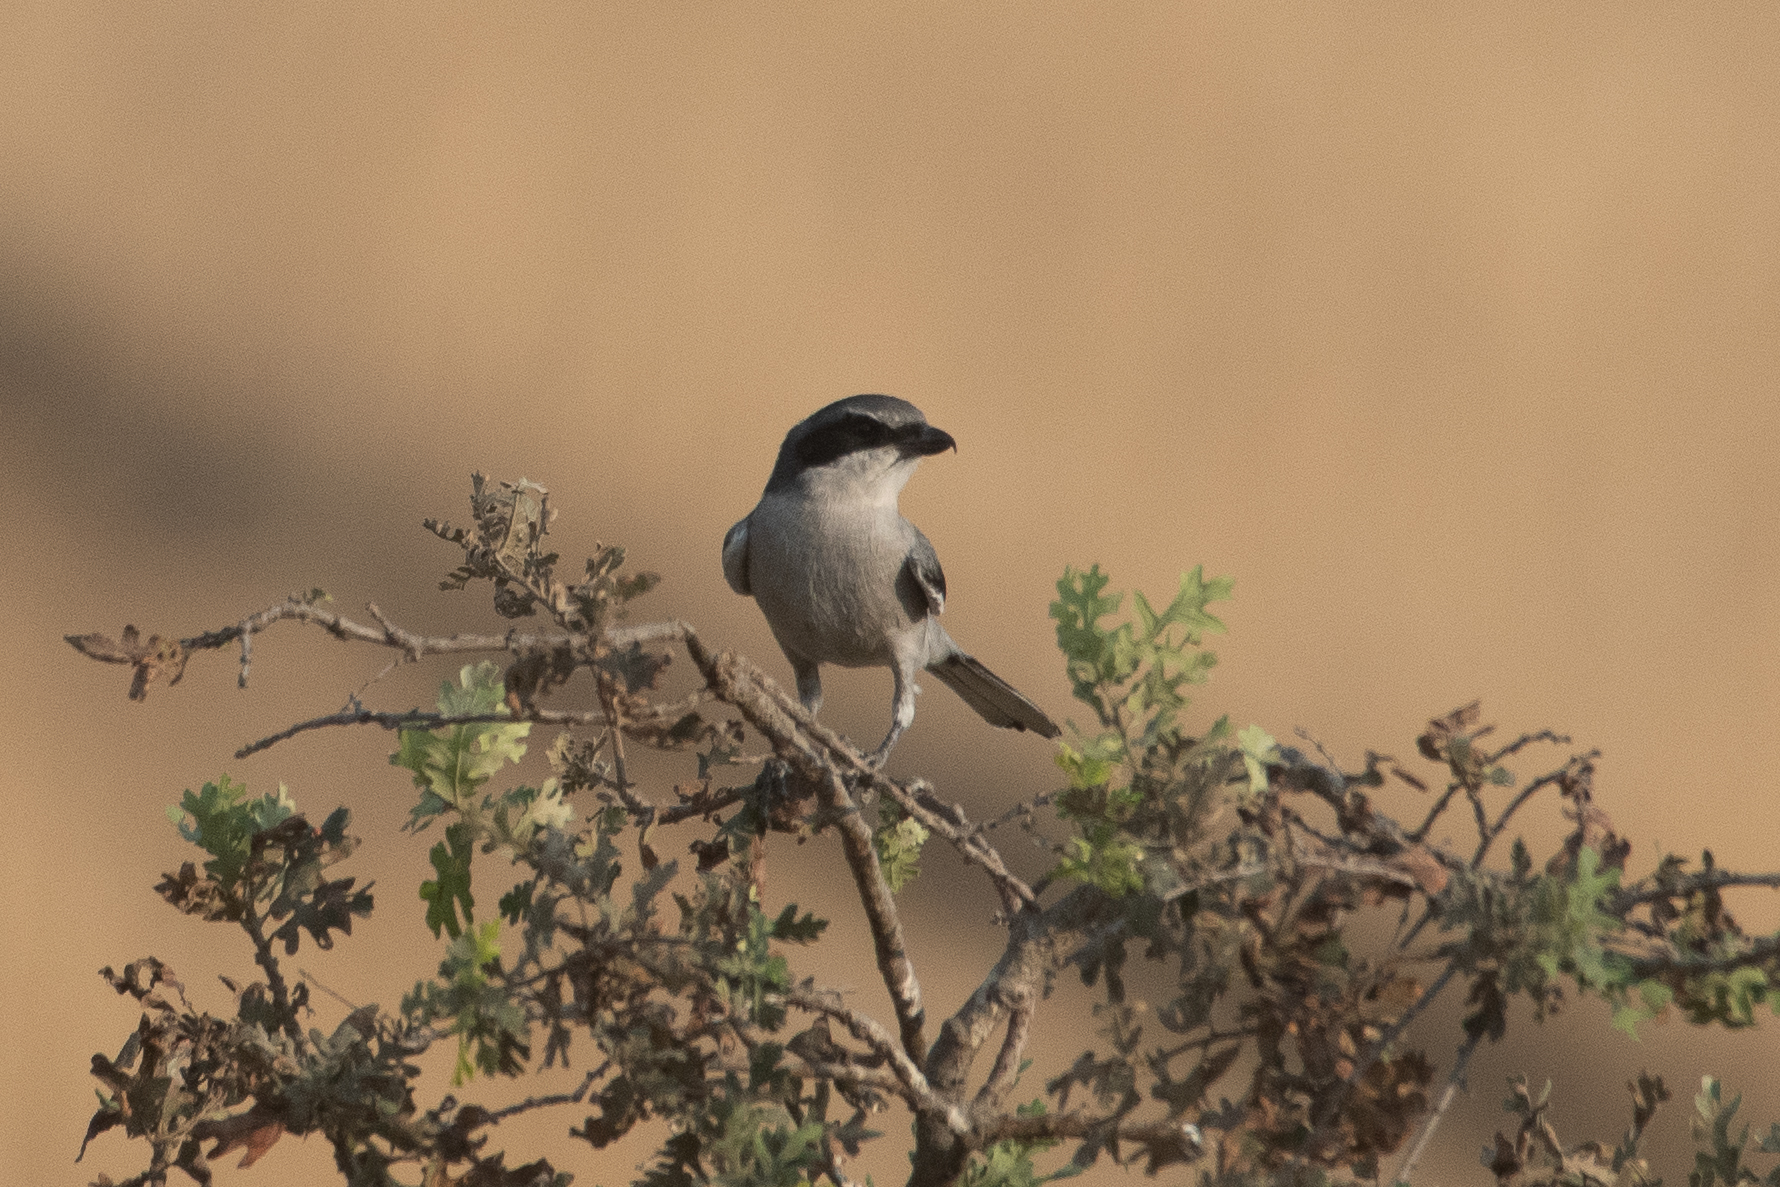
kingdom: Animalia
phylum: Chordata
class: Aves
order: Passeriformes
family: Laniidae
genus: Lanius
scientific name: Lanius ludovicianus
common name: Loggerhead shrike
